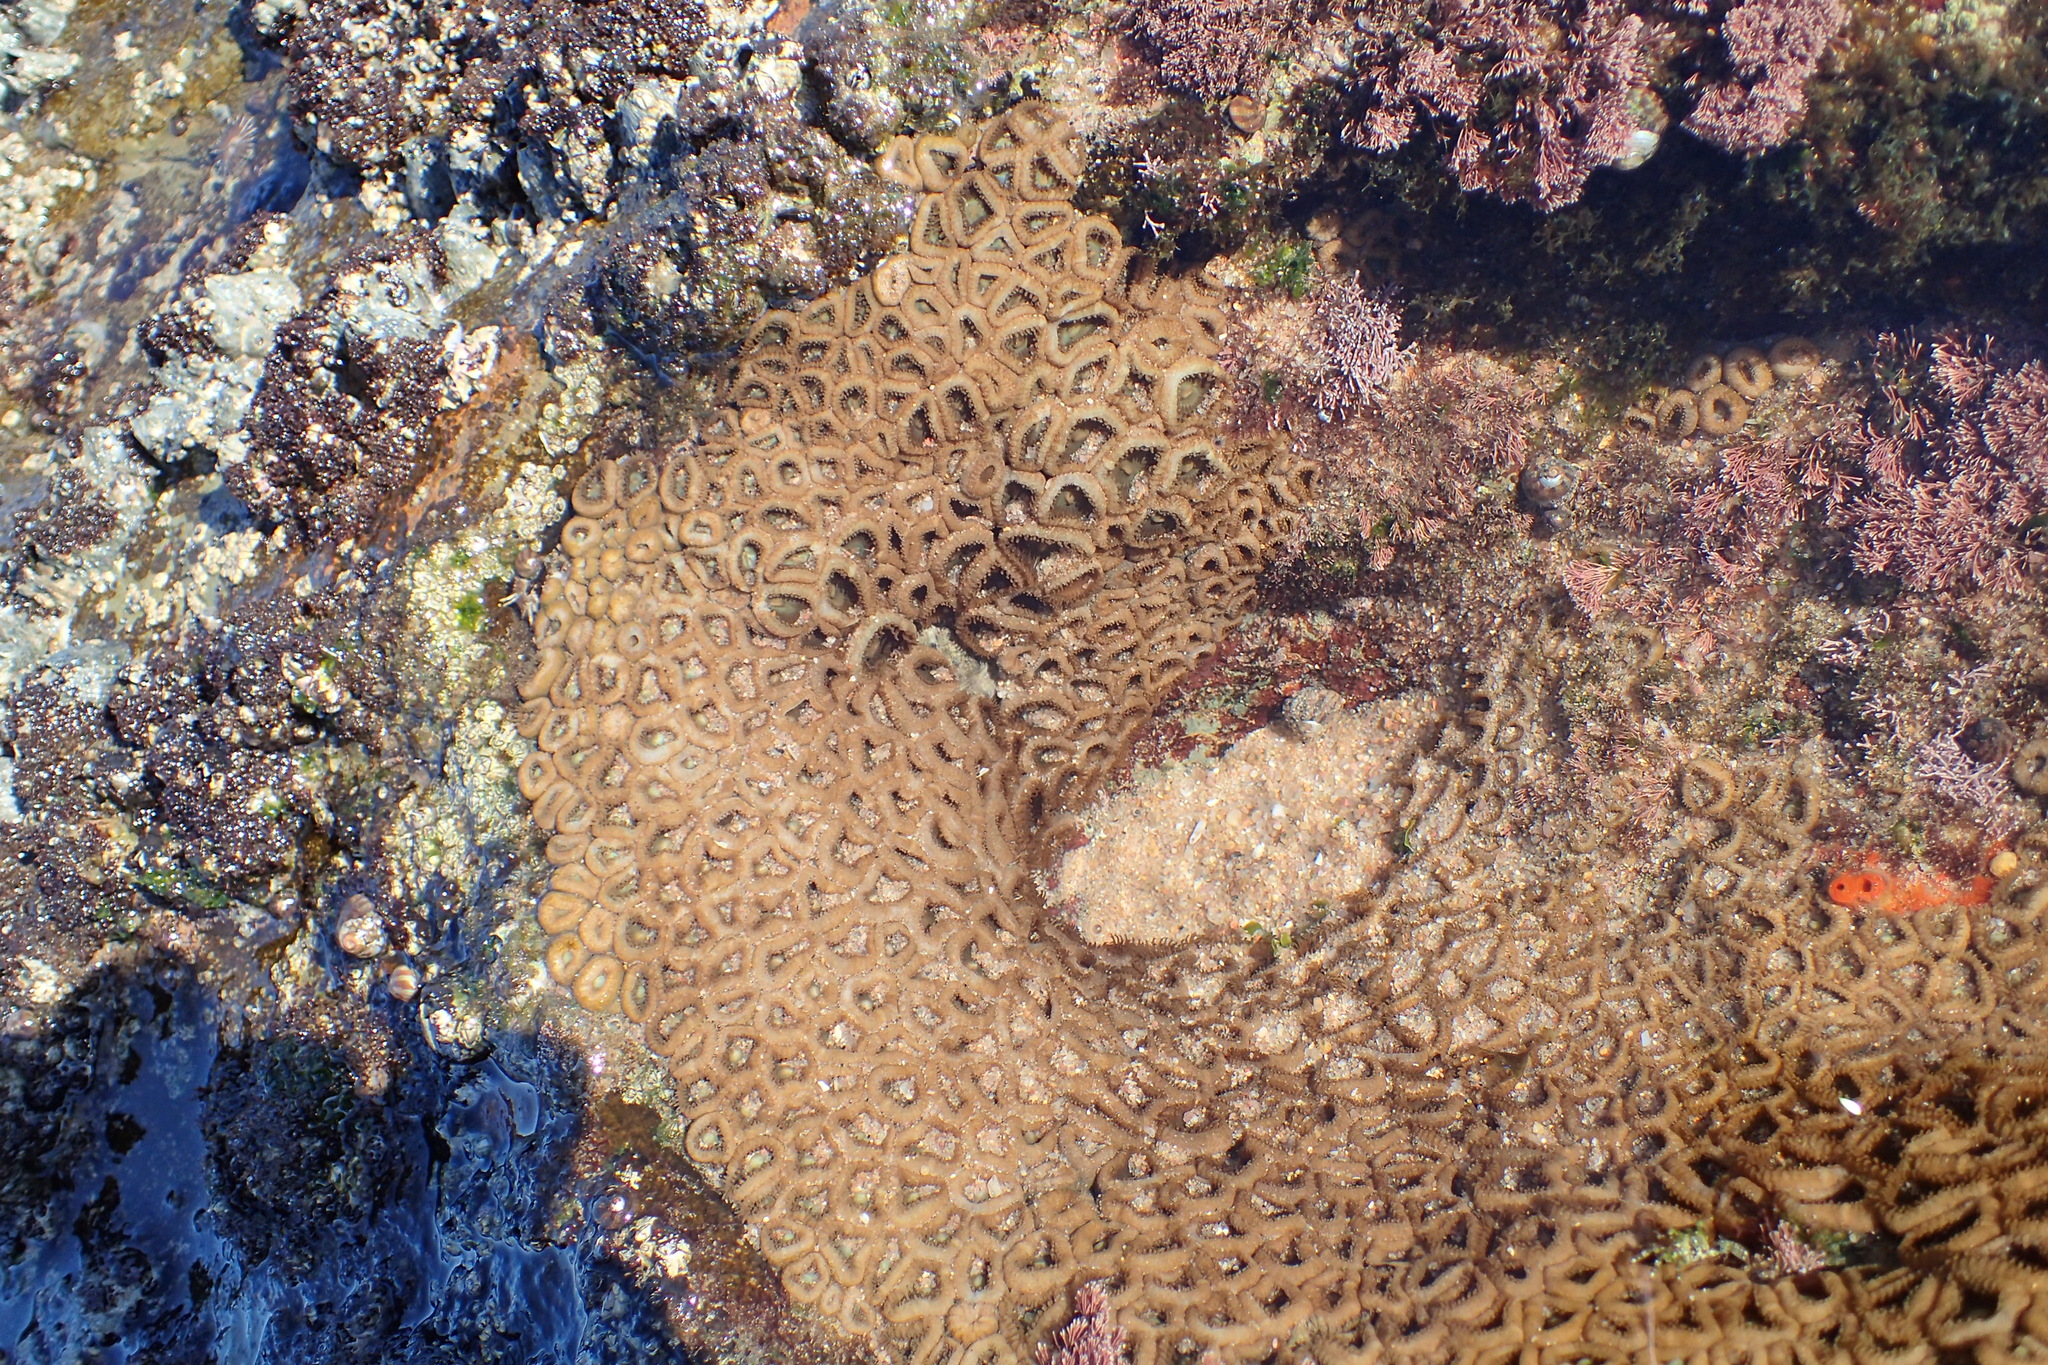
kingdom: Animalia
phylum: Cnidaria
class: Anthozoa
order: Zoantharia
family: Sphenopidae
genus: Palythoa
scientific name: Palythoa mutuki
